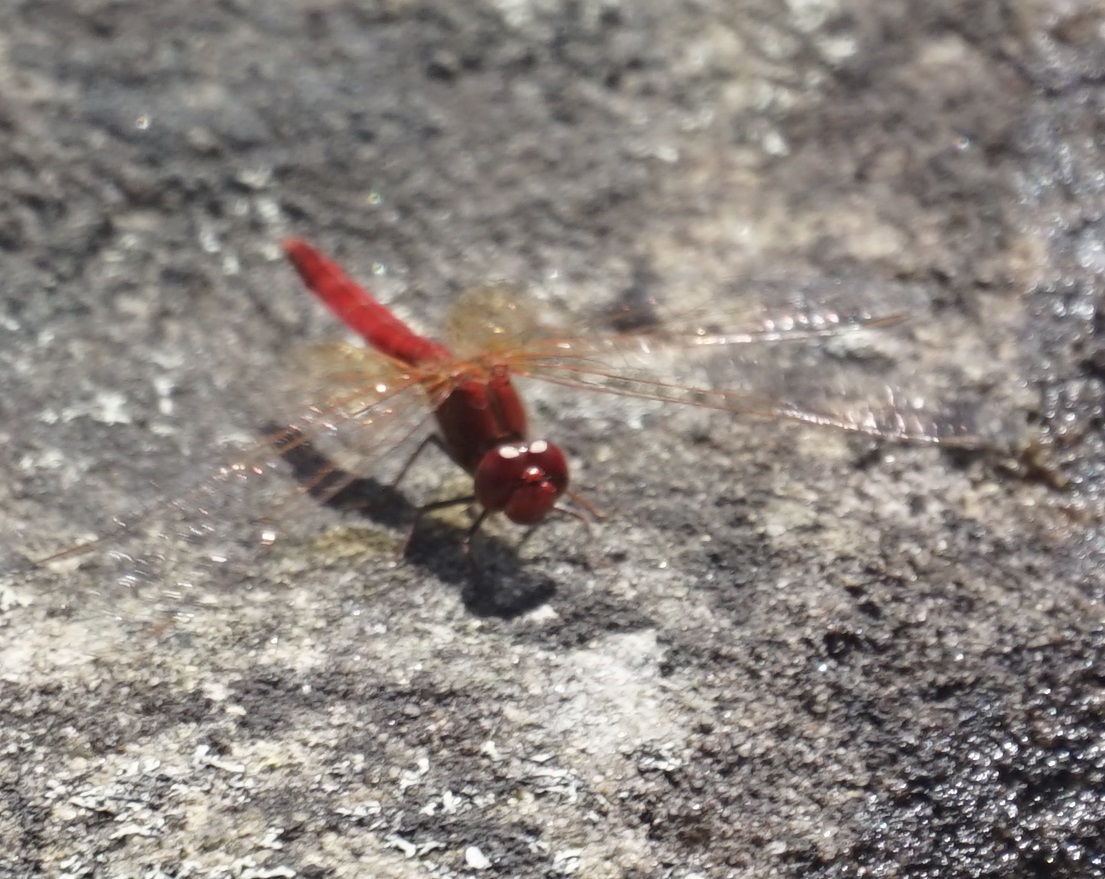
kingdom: Animalia
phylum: Arthropoda
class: Insecta
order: Odonata
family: Libellulidae
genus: Diplacodes
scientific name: Diplacodes haematodes
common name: Scarlet percher
